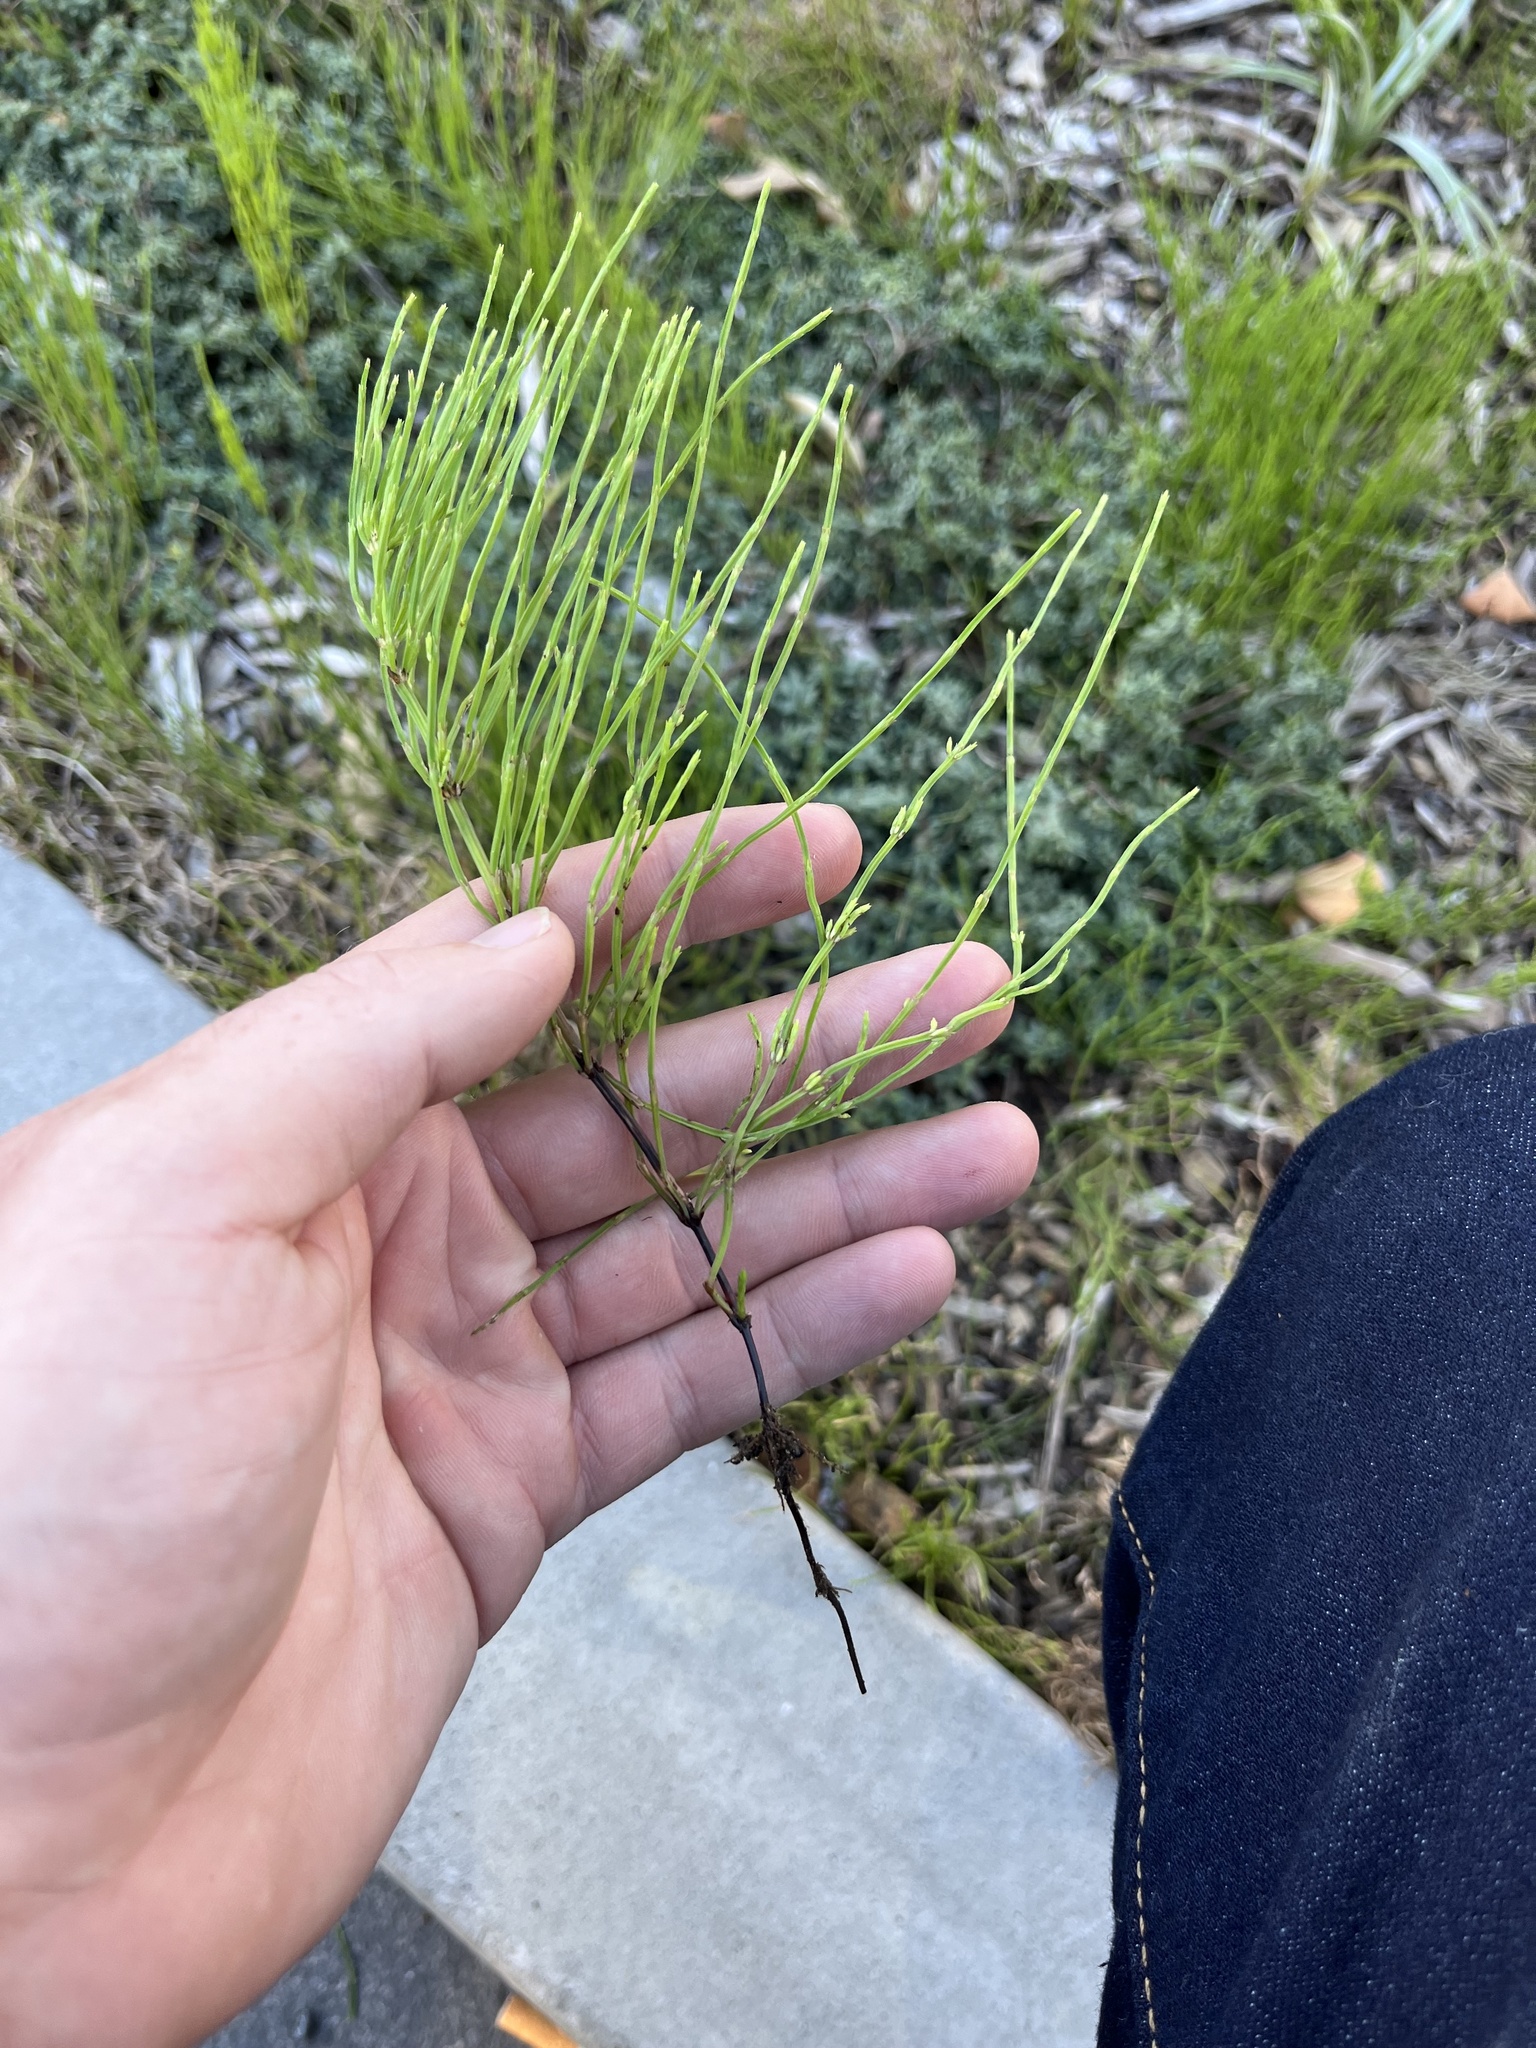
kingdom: Plantae
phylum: Tracheophyta
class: Polypodiopsida
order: Equisetales
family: Equisetaceae
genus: Equisetum
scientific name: Equisetum arvense
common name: Field horsetail
